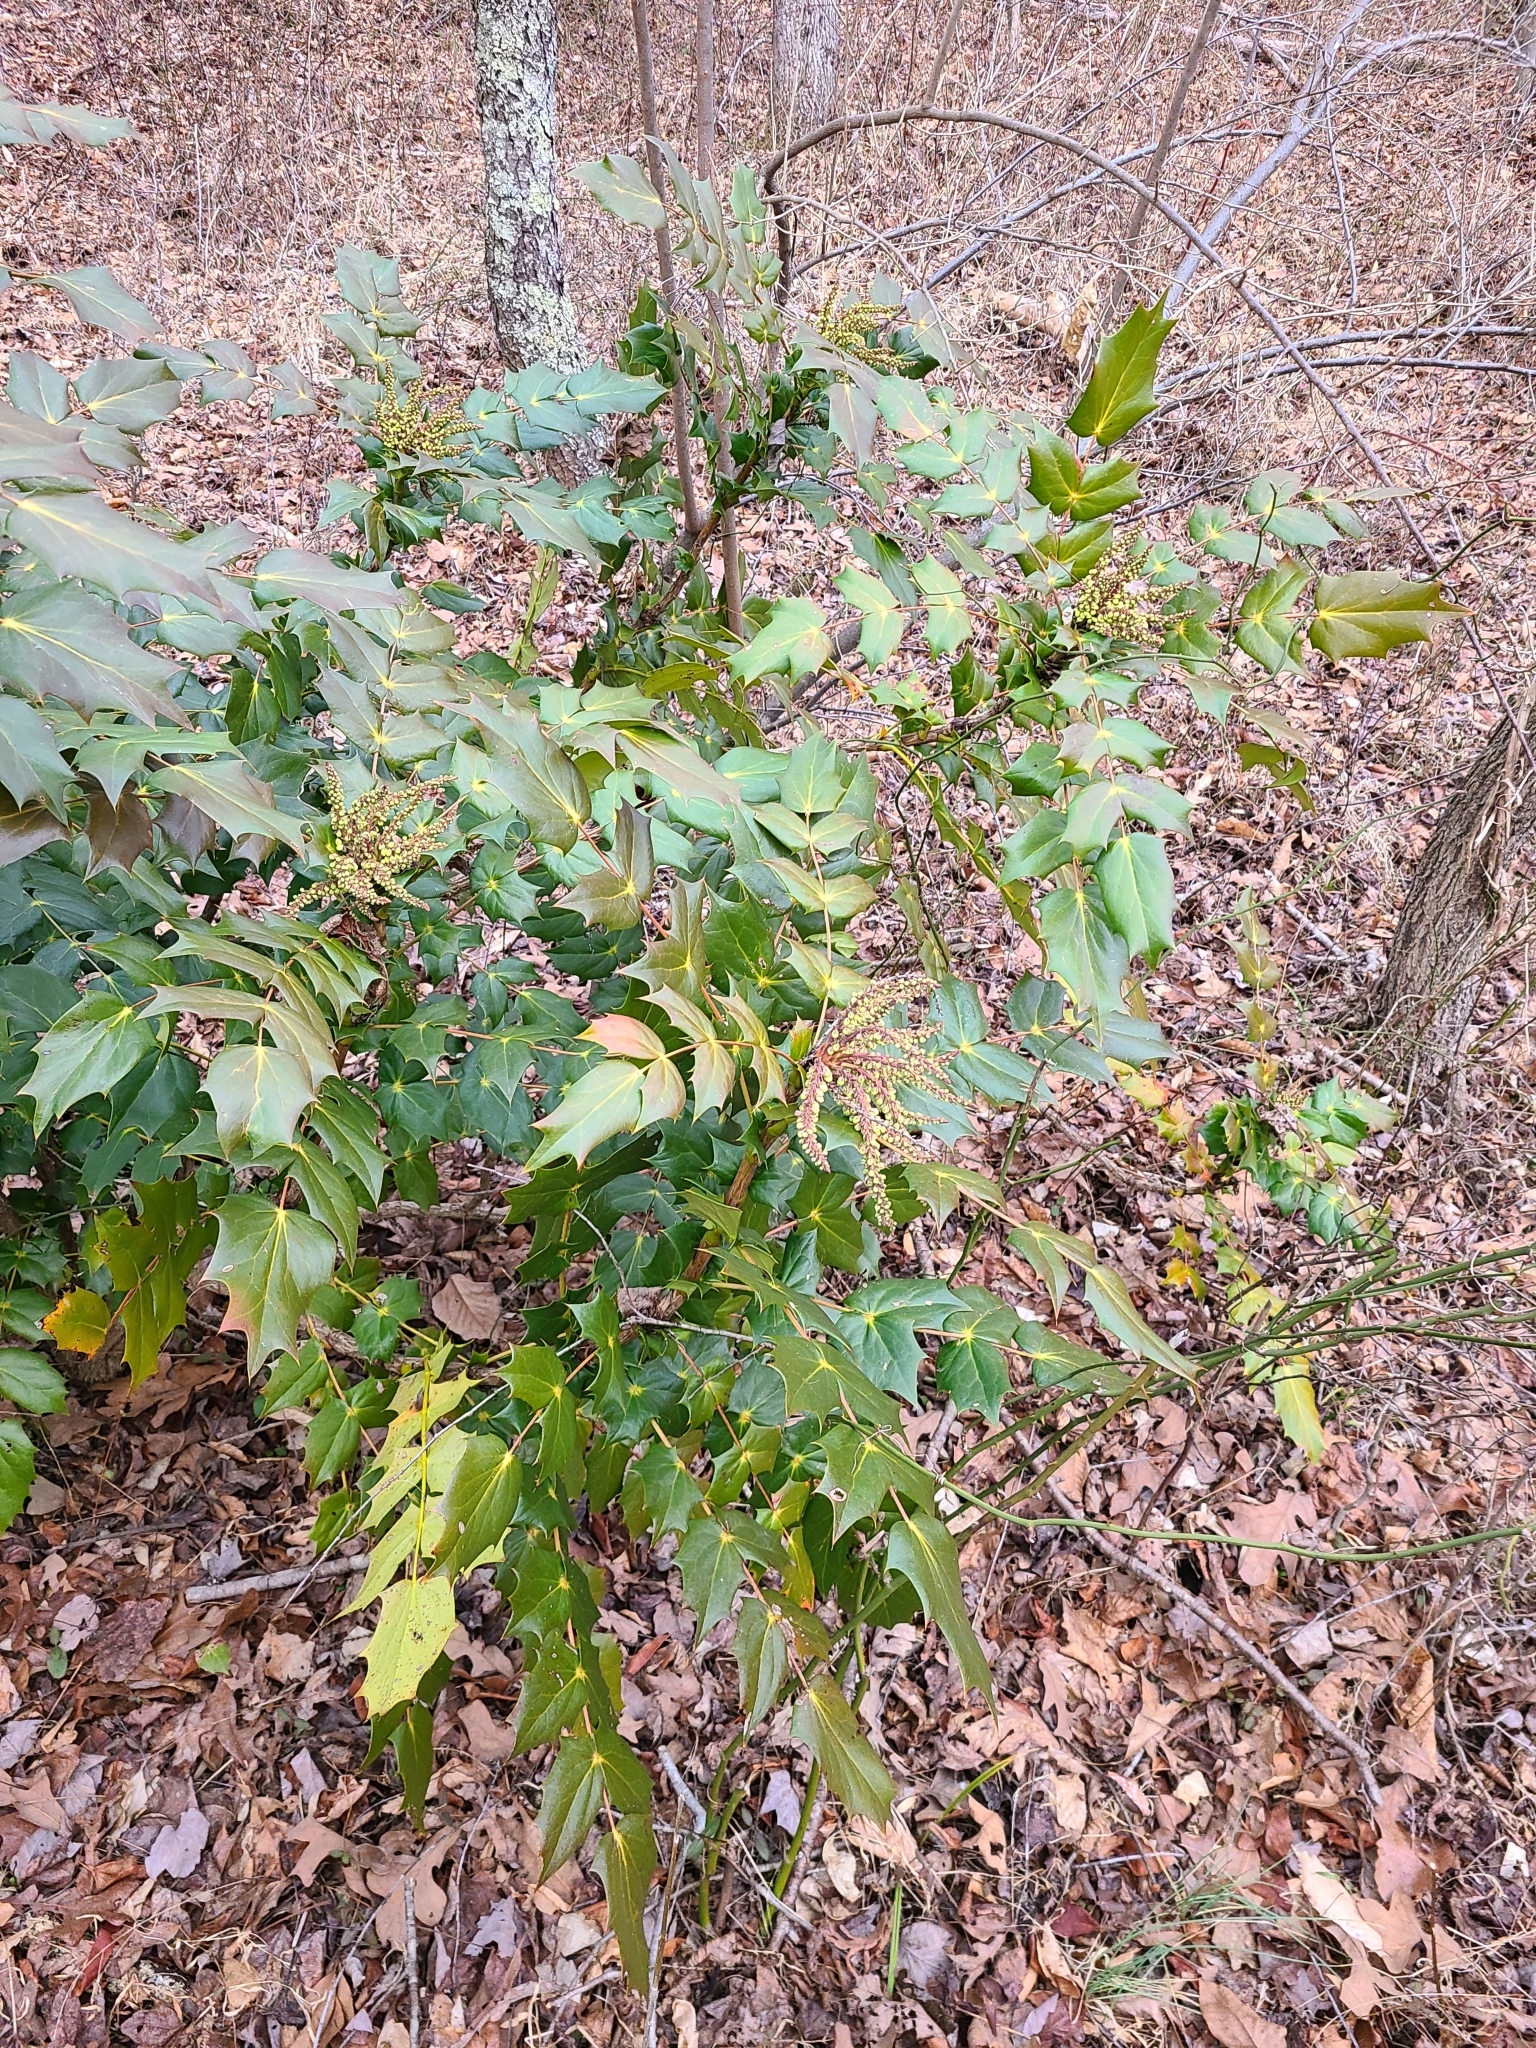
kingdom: Plantae
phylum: Tracheophyta
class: Magnoliopsida
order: Ranunculales
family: Berberidaceae
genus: Mahonia
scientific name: Mahonia bealei
